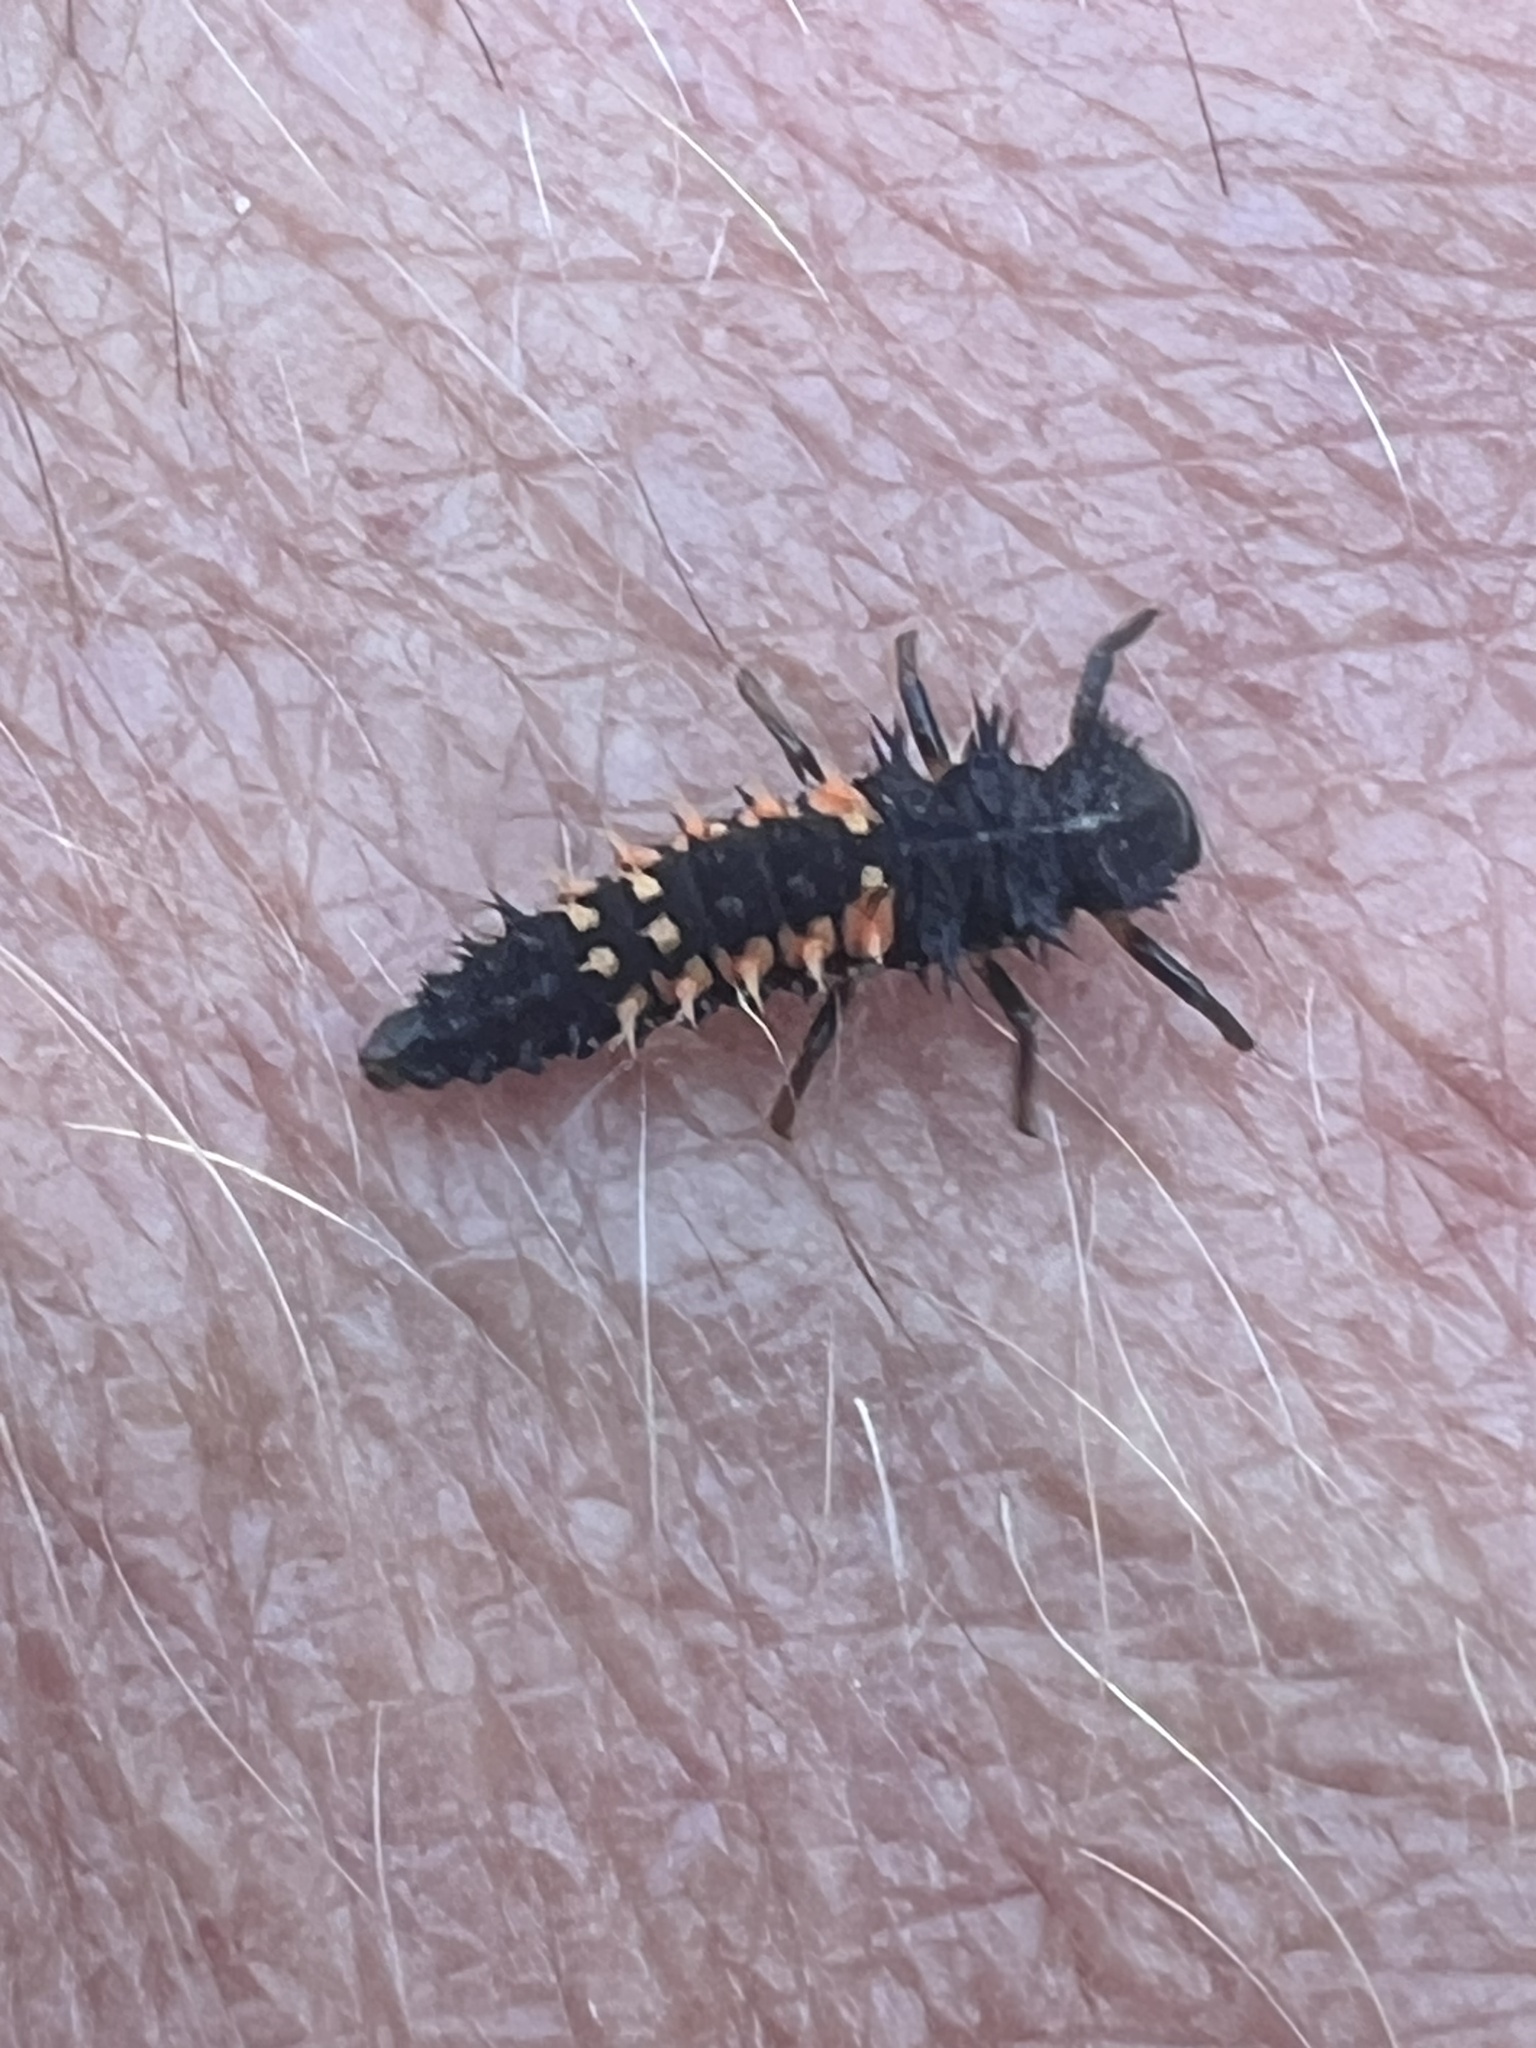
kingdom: Animalia
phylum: Arthropoda
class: Insecta
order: Coleoptera
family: Coccinellidae
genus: Harmonia
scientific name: Harmonia axyridis
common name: Harlequin ladybird
